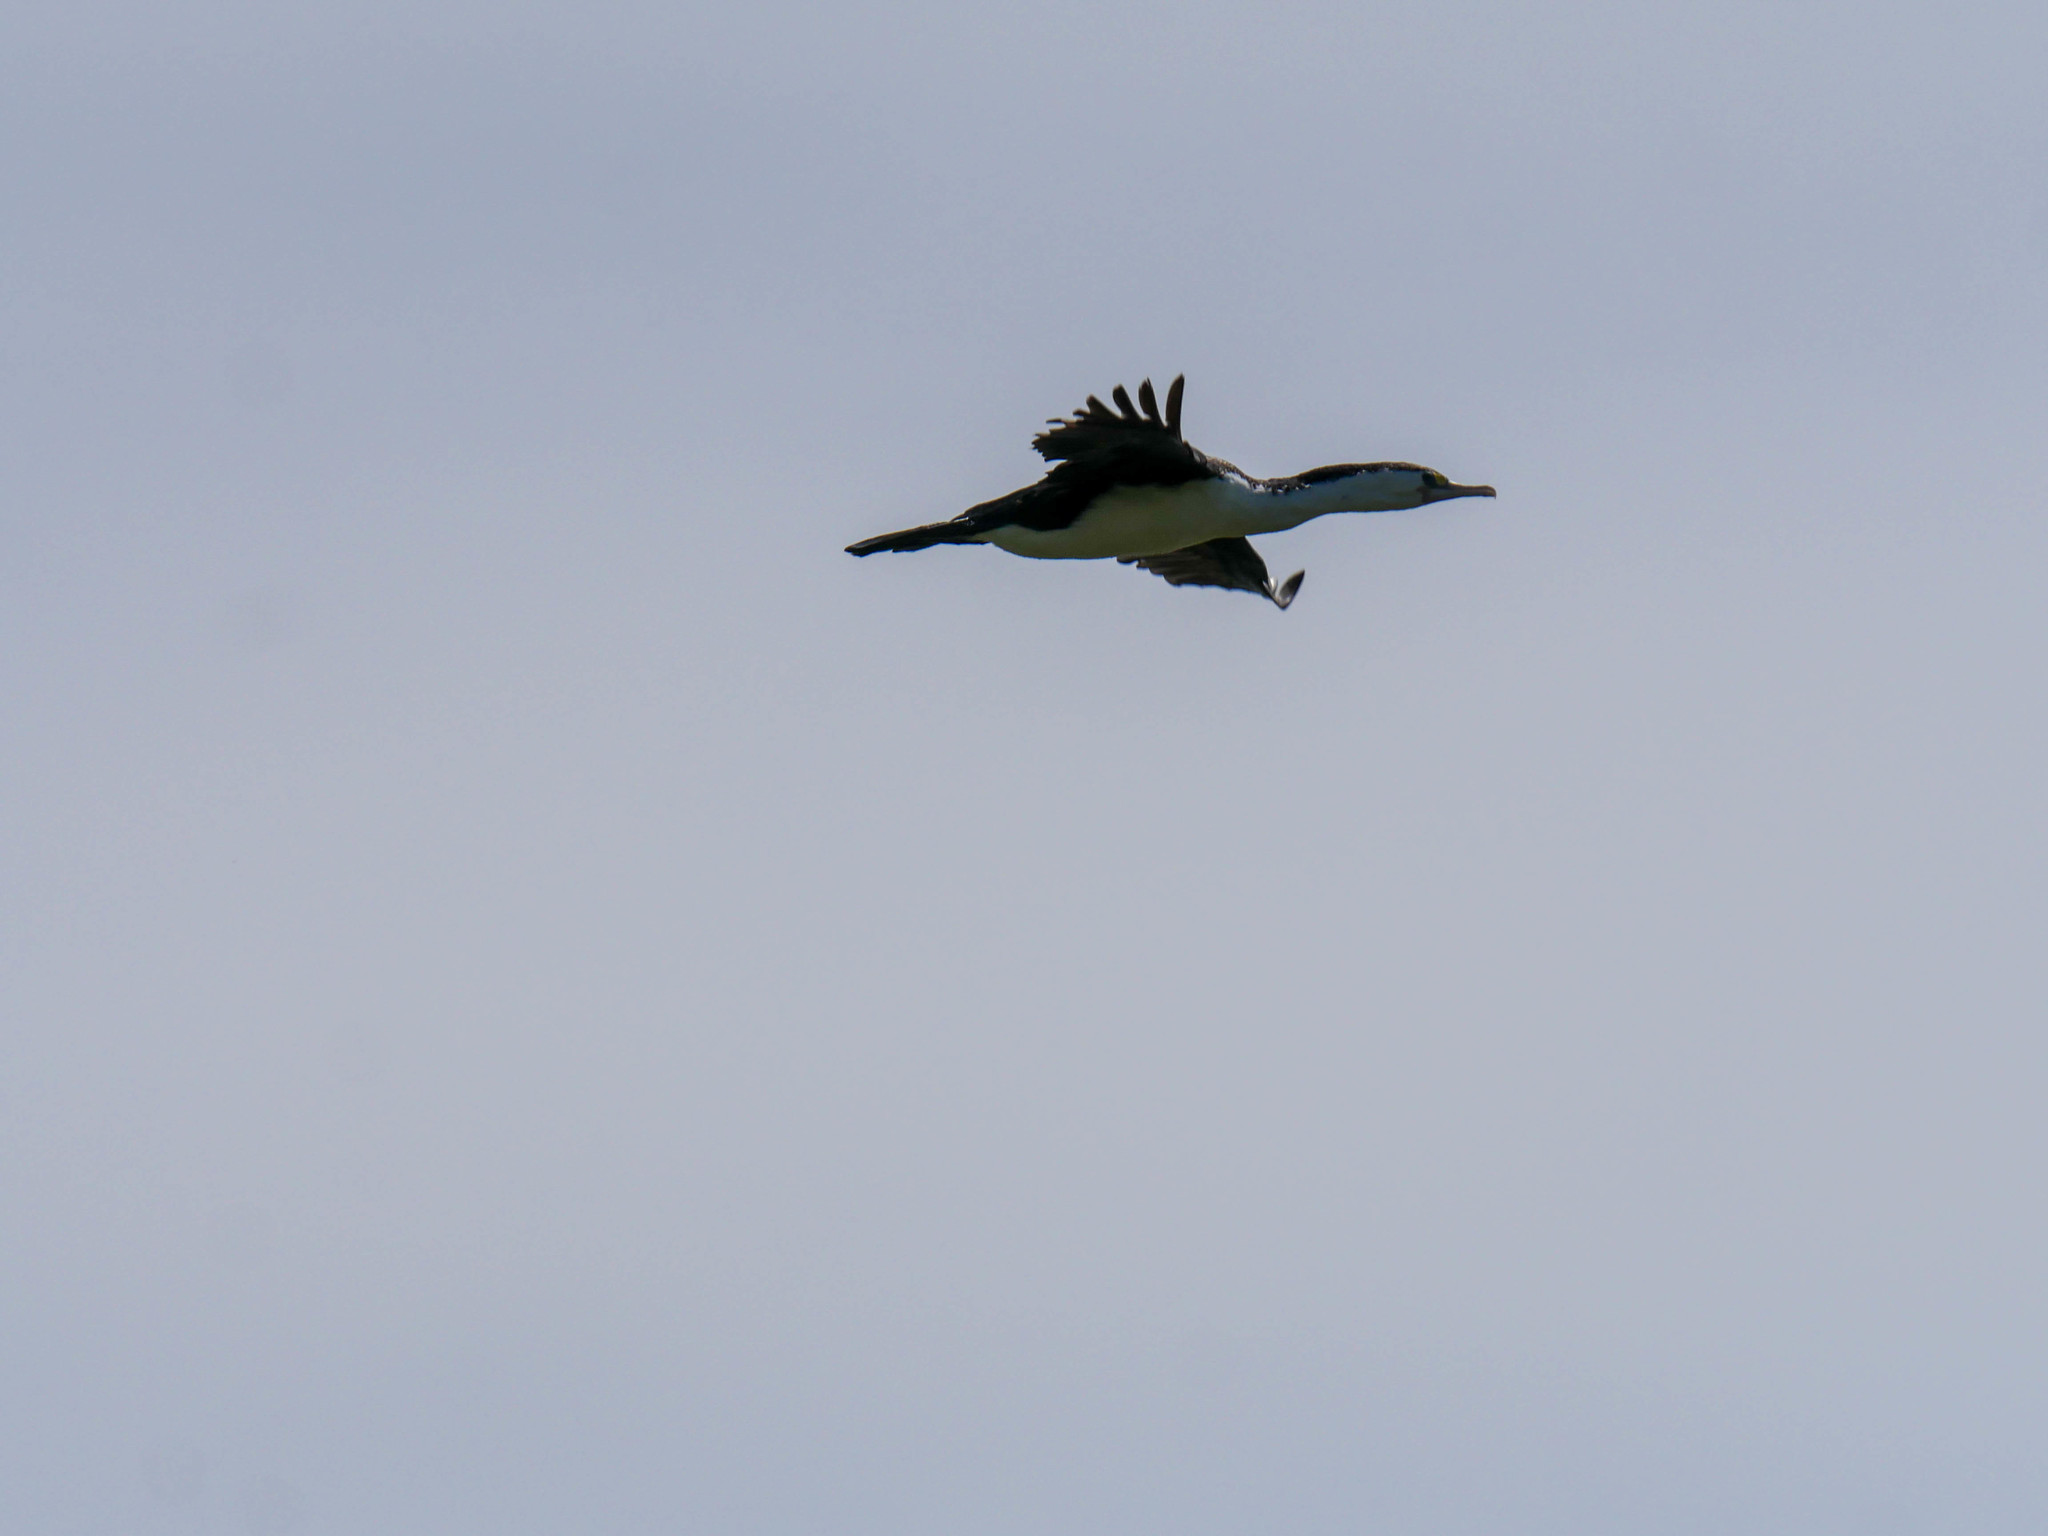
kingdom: Animalia
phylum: Chordata
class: Aves
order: Suliformes
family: Phalacrocoracidae
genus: Phalacrocorax
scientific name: Phalacrocorax varius
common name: Pied cormorant
